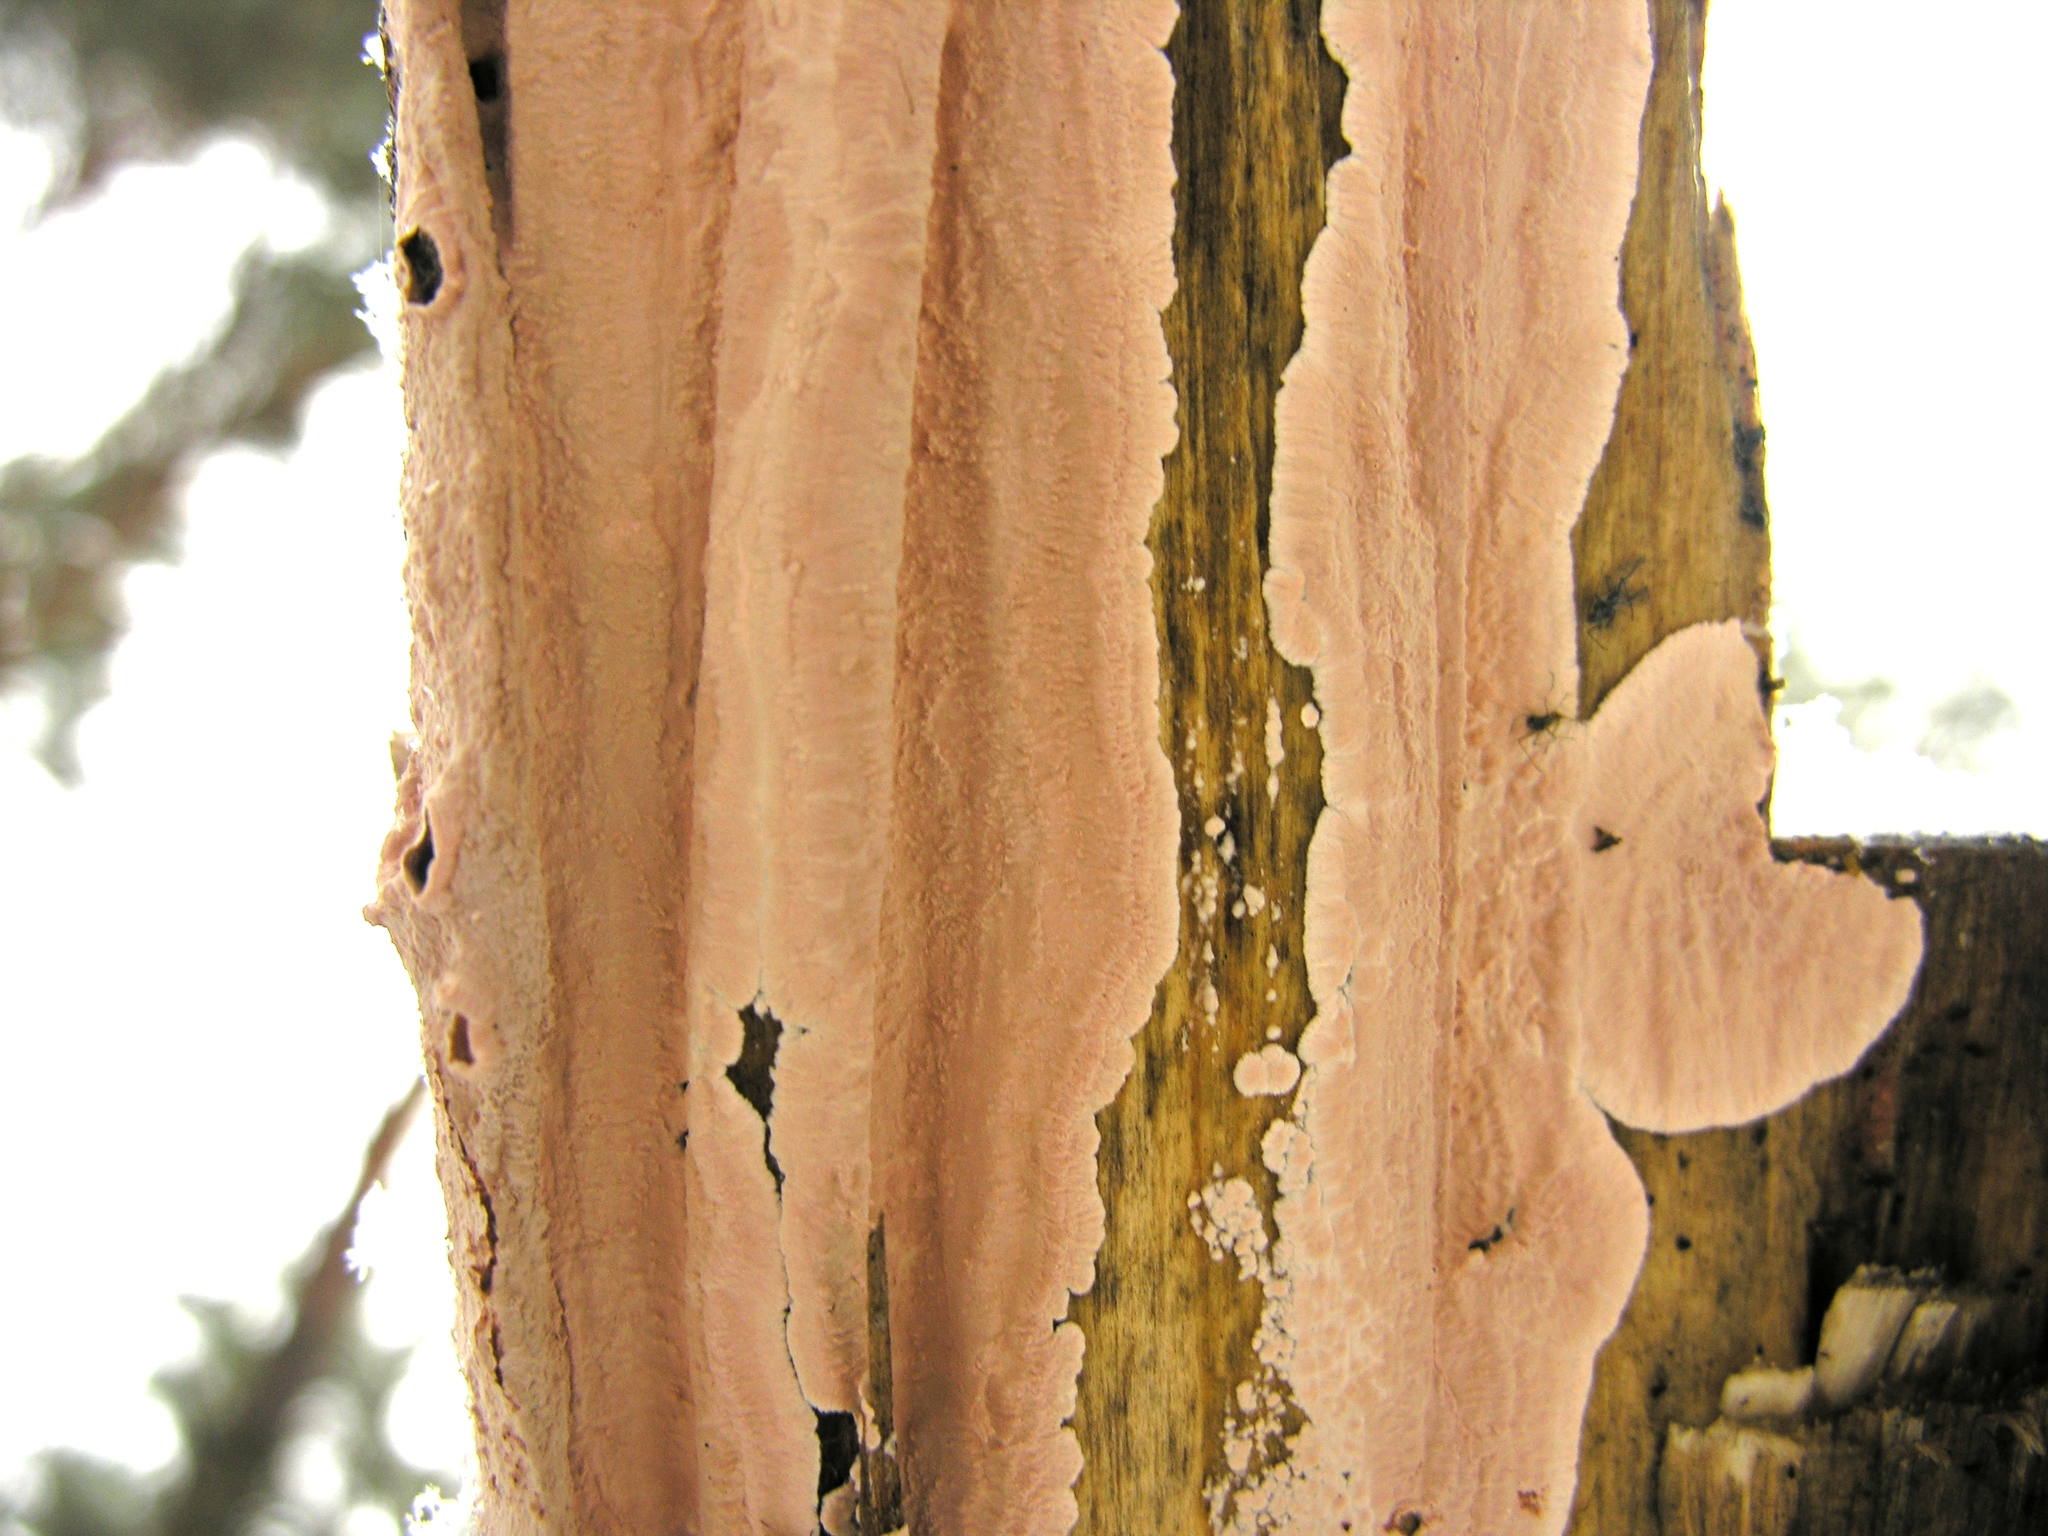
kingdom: Fungi
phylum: Basidiomycota
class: Agaricomycetes
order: Corticiales
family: Corticiaceae
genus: Corticium
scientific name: Corticium roseum
